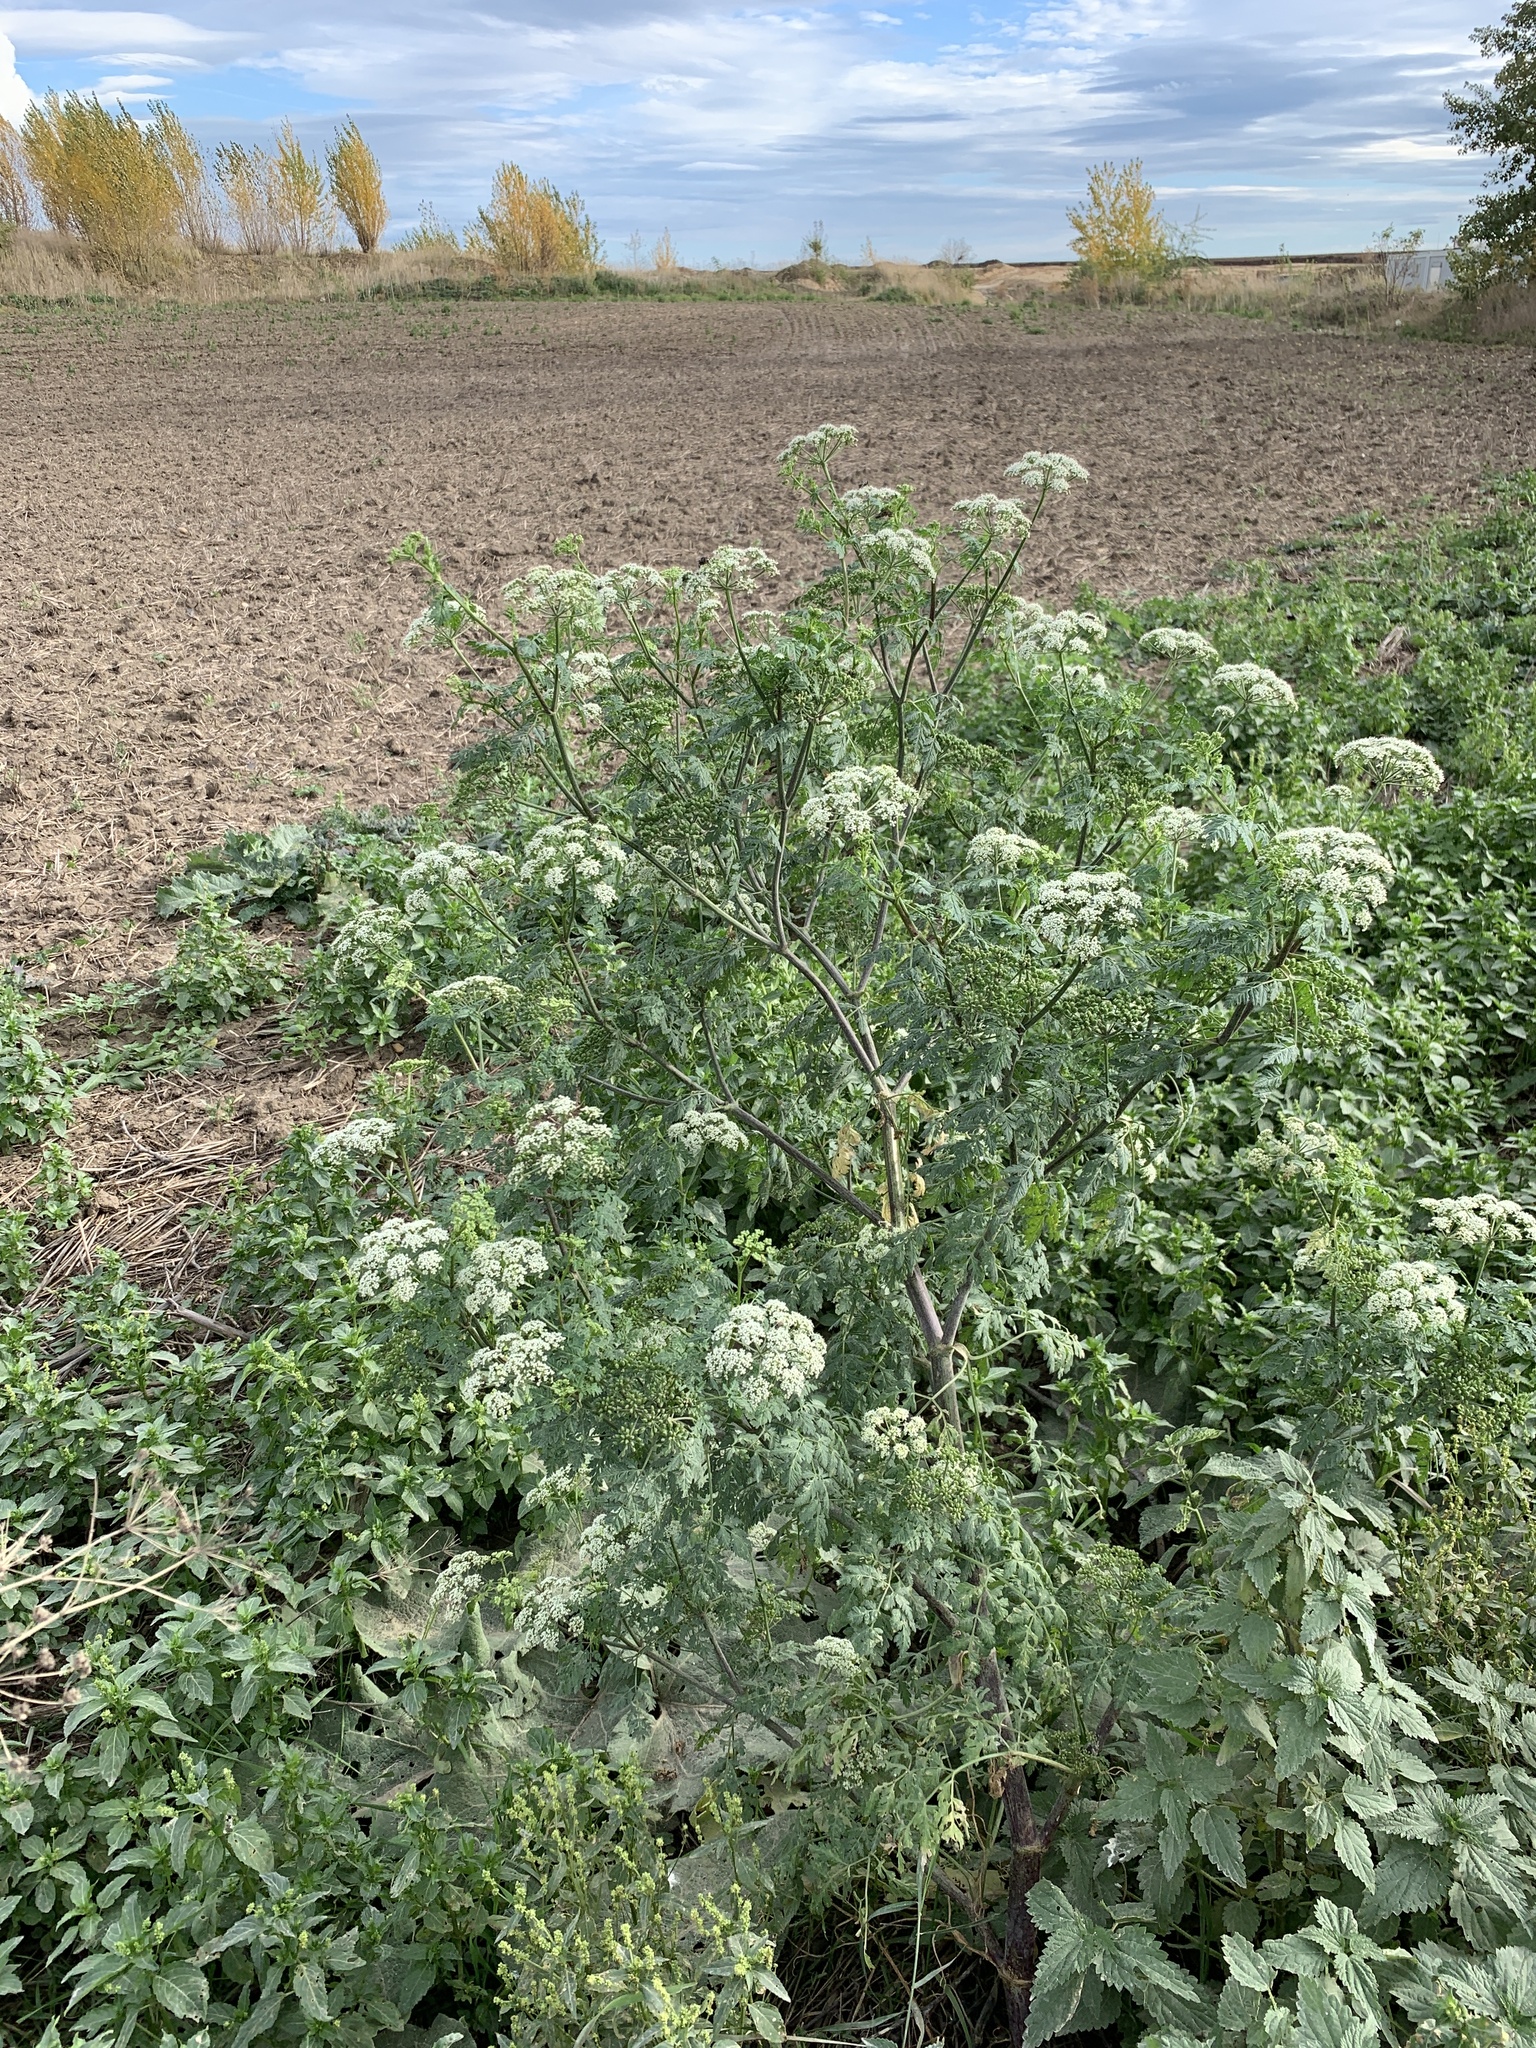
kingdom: Plantae
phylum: Tracheophyta
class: Magnoliopsida
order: Apiales
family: Apiaceae
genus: Conium
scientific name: Conium maculatum
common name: Hemlock
